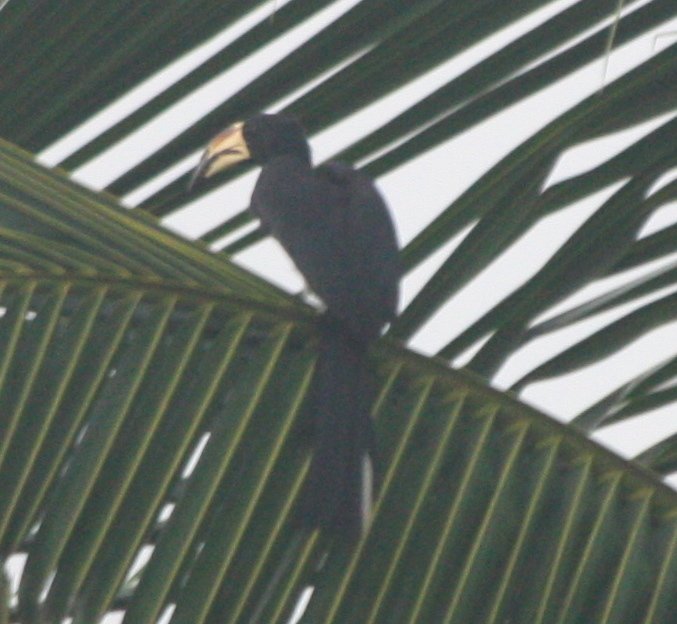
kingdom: Animalia
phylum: Chordata
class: Aves
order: Bucerotiformes
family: Bucerotidae
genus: Lophoceros
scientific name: Lophoceros fasciatus
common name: African pied hornbill
